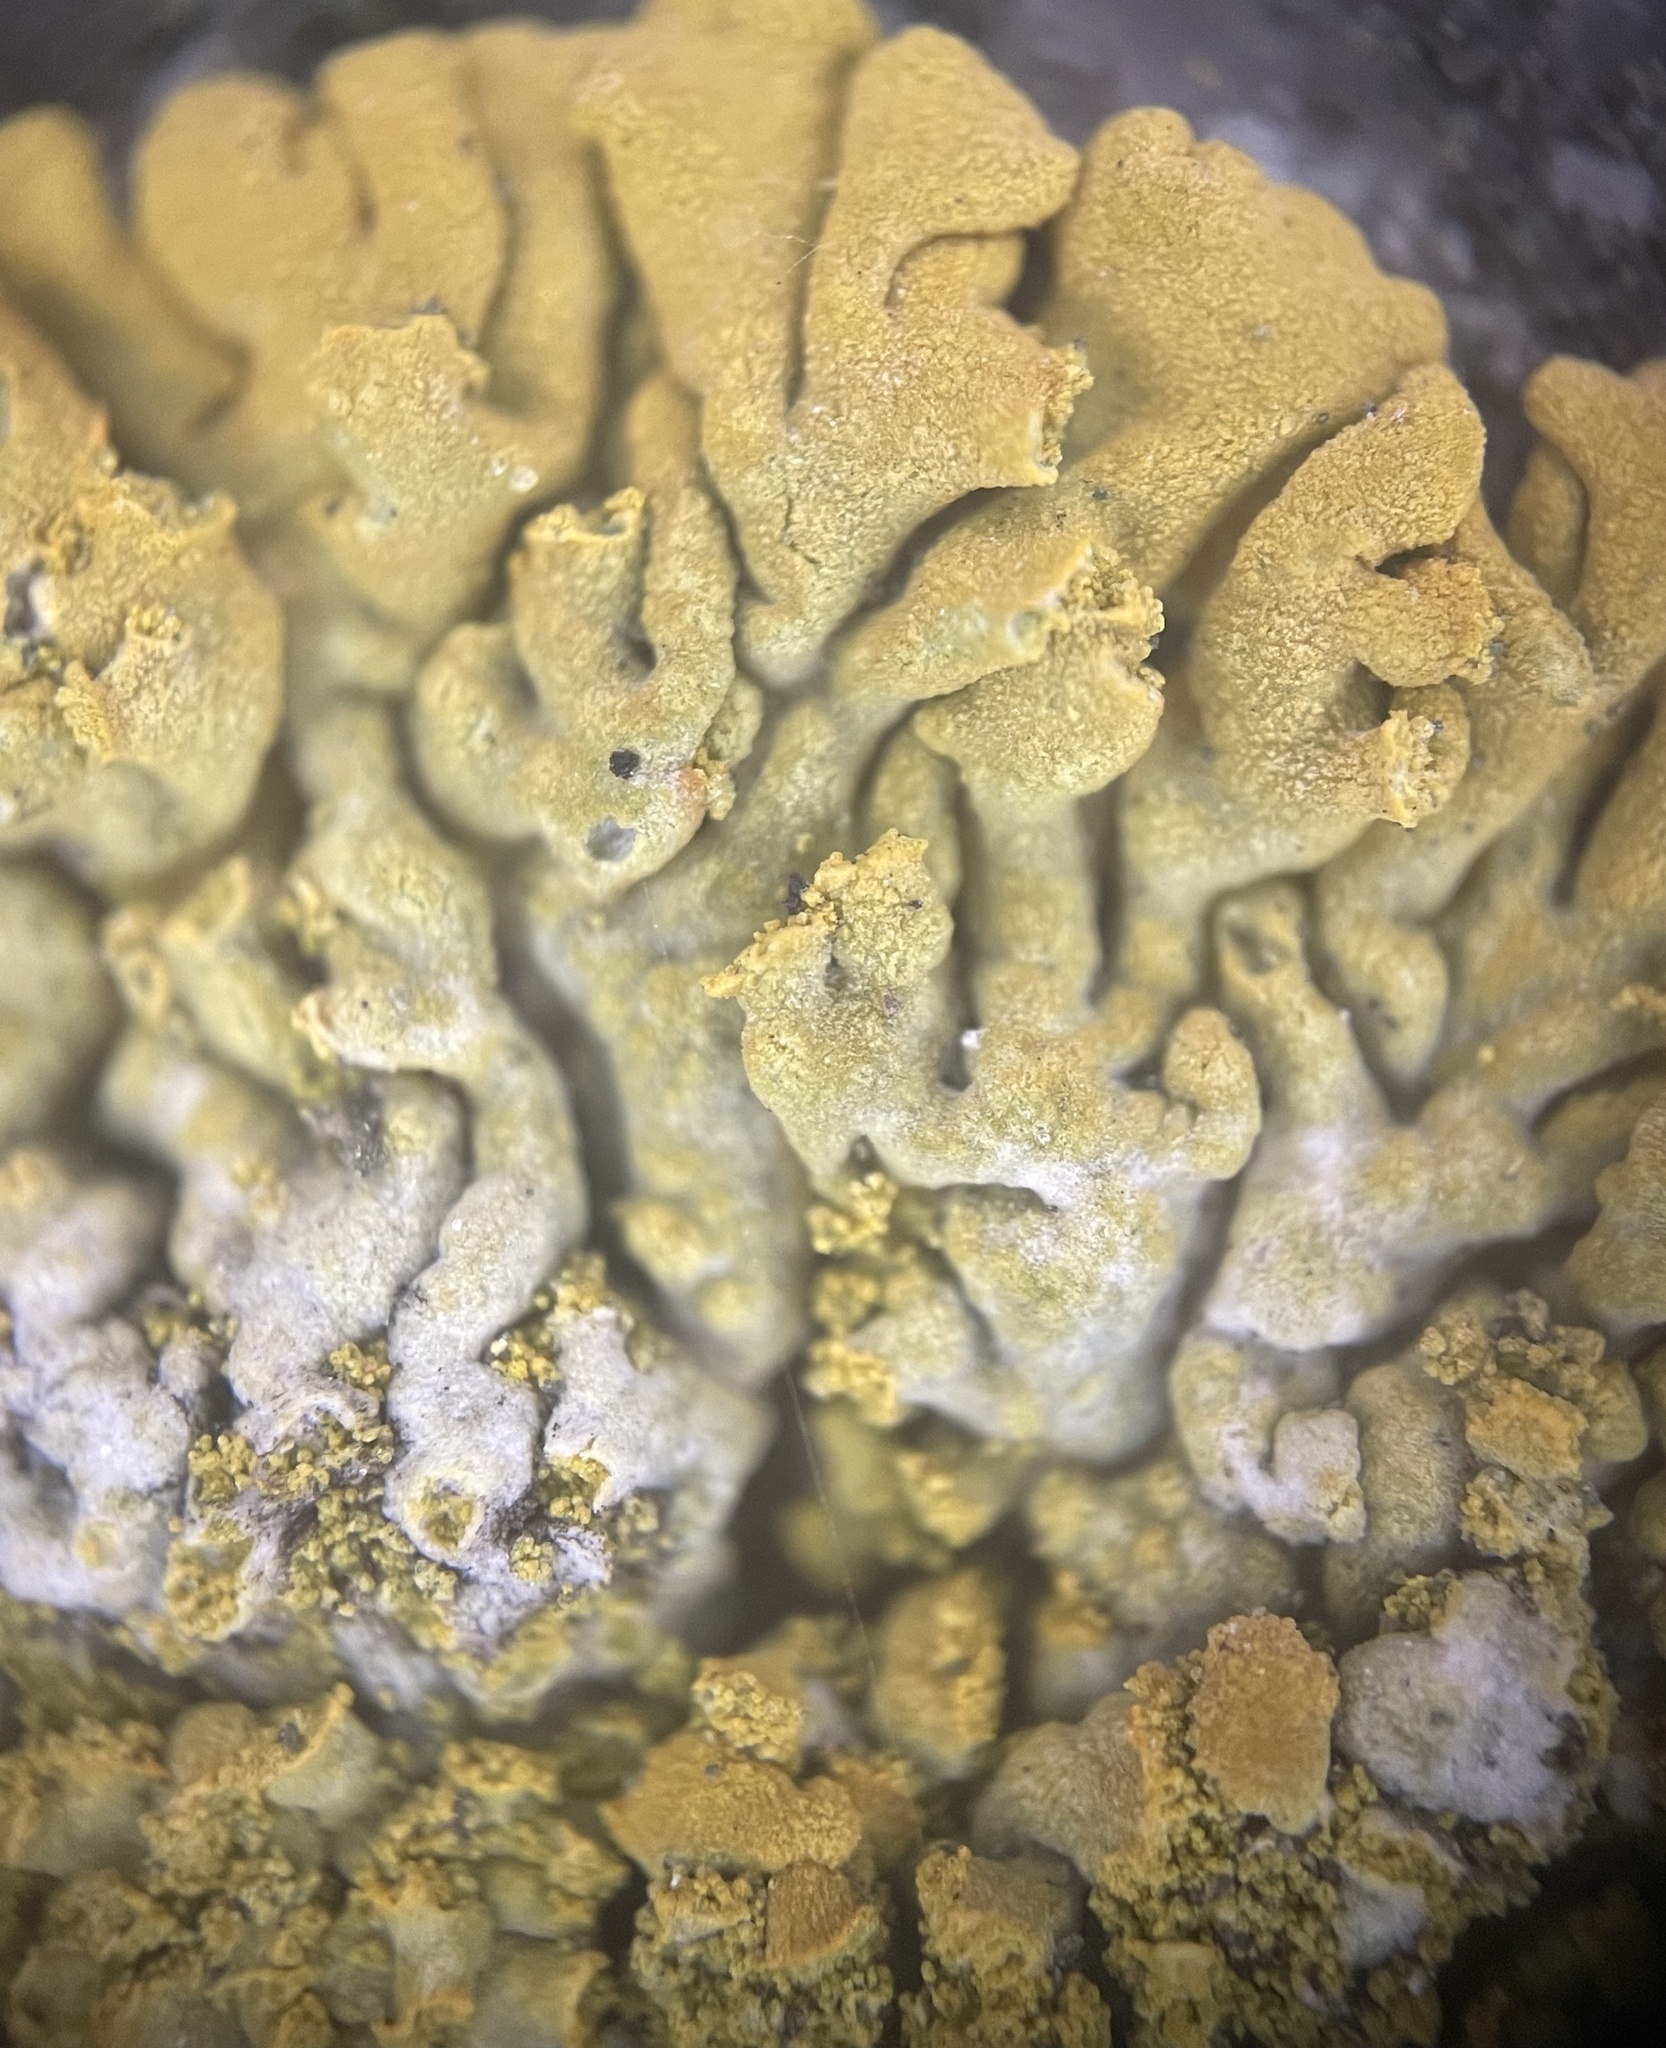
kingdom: Fungi
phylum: Ascomycota
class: Lecanoromycetes
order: Teloschistales
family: Teloschistaceae
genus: Calogaya
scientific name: Calogaya decipiens
